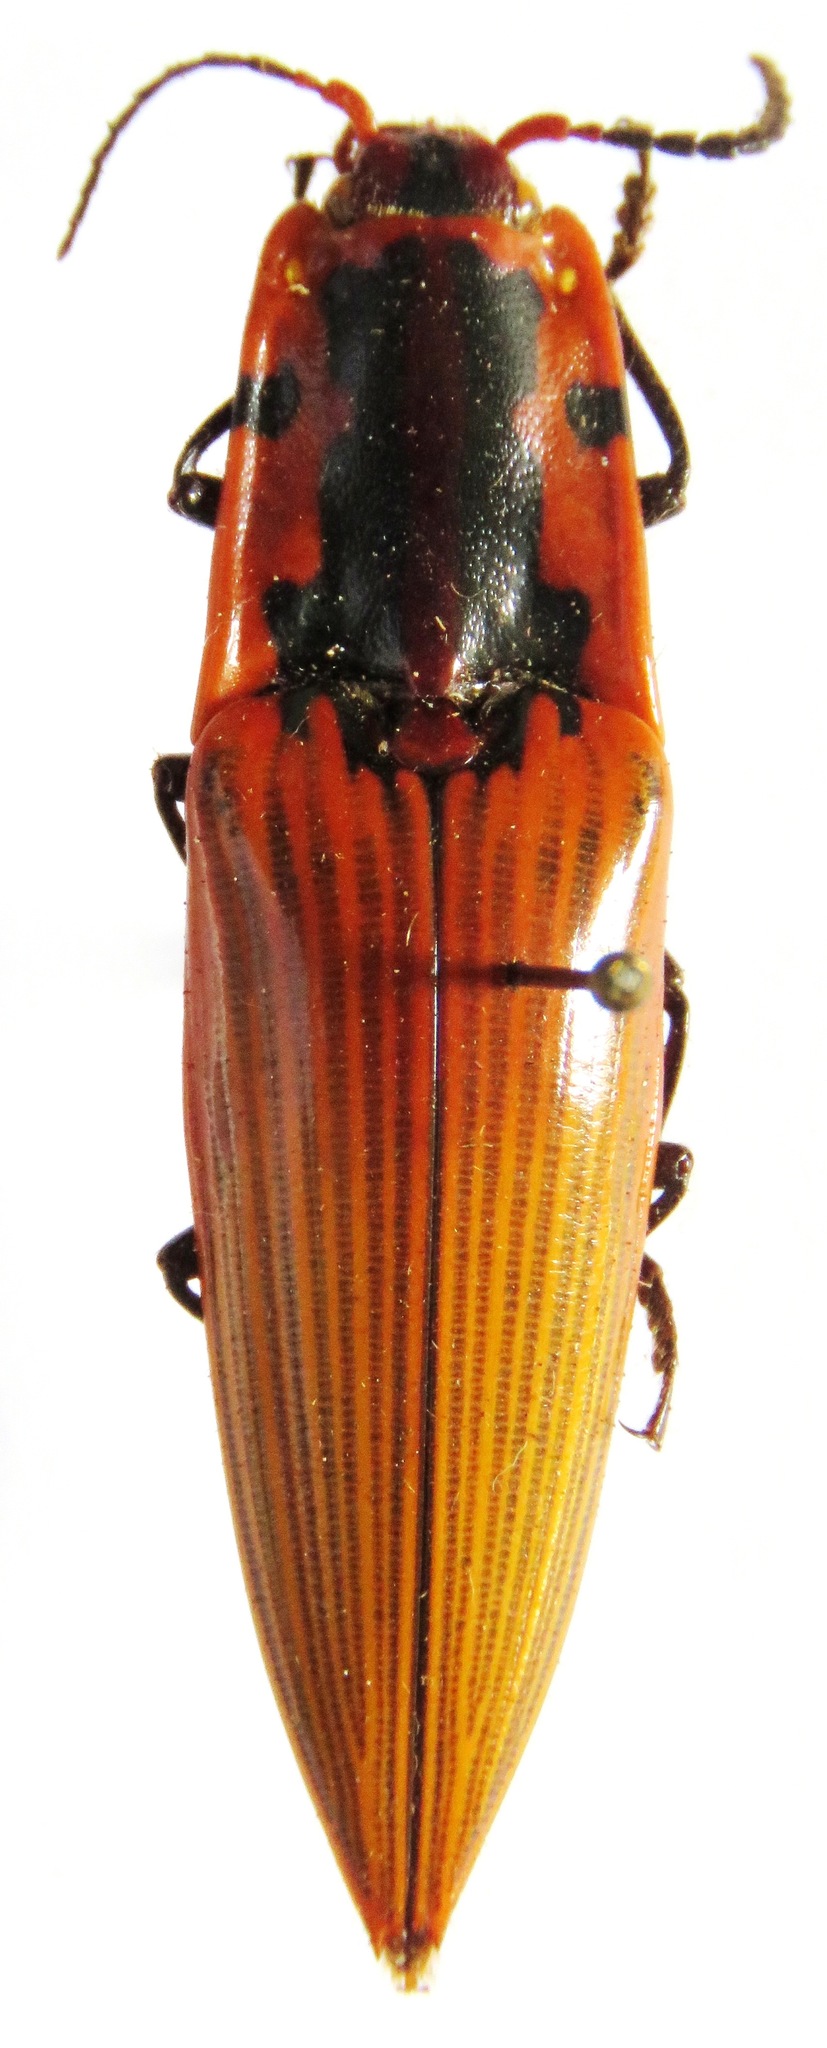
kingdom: Animalia
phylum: Arthropoda
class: Insecta
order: Coleoptera
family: Elateridae
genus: Semiotus
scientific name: Semiotus
